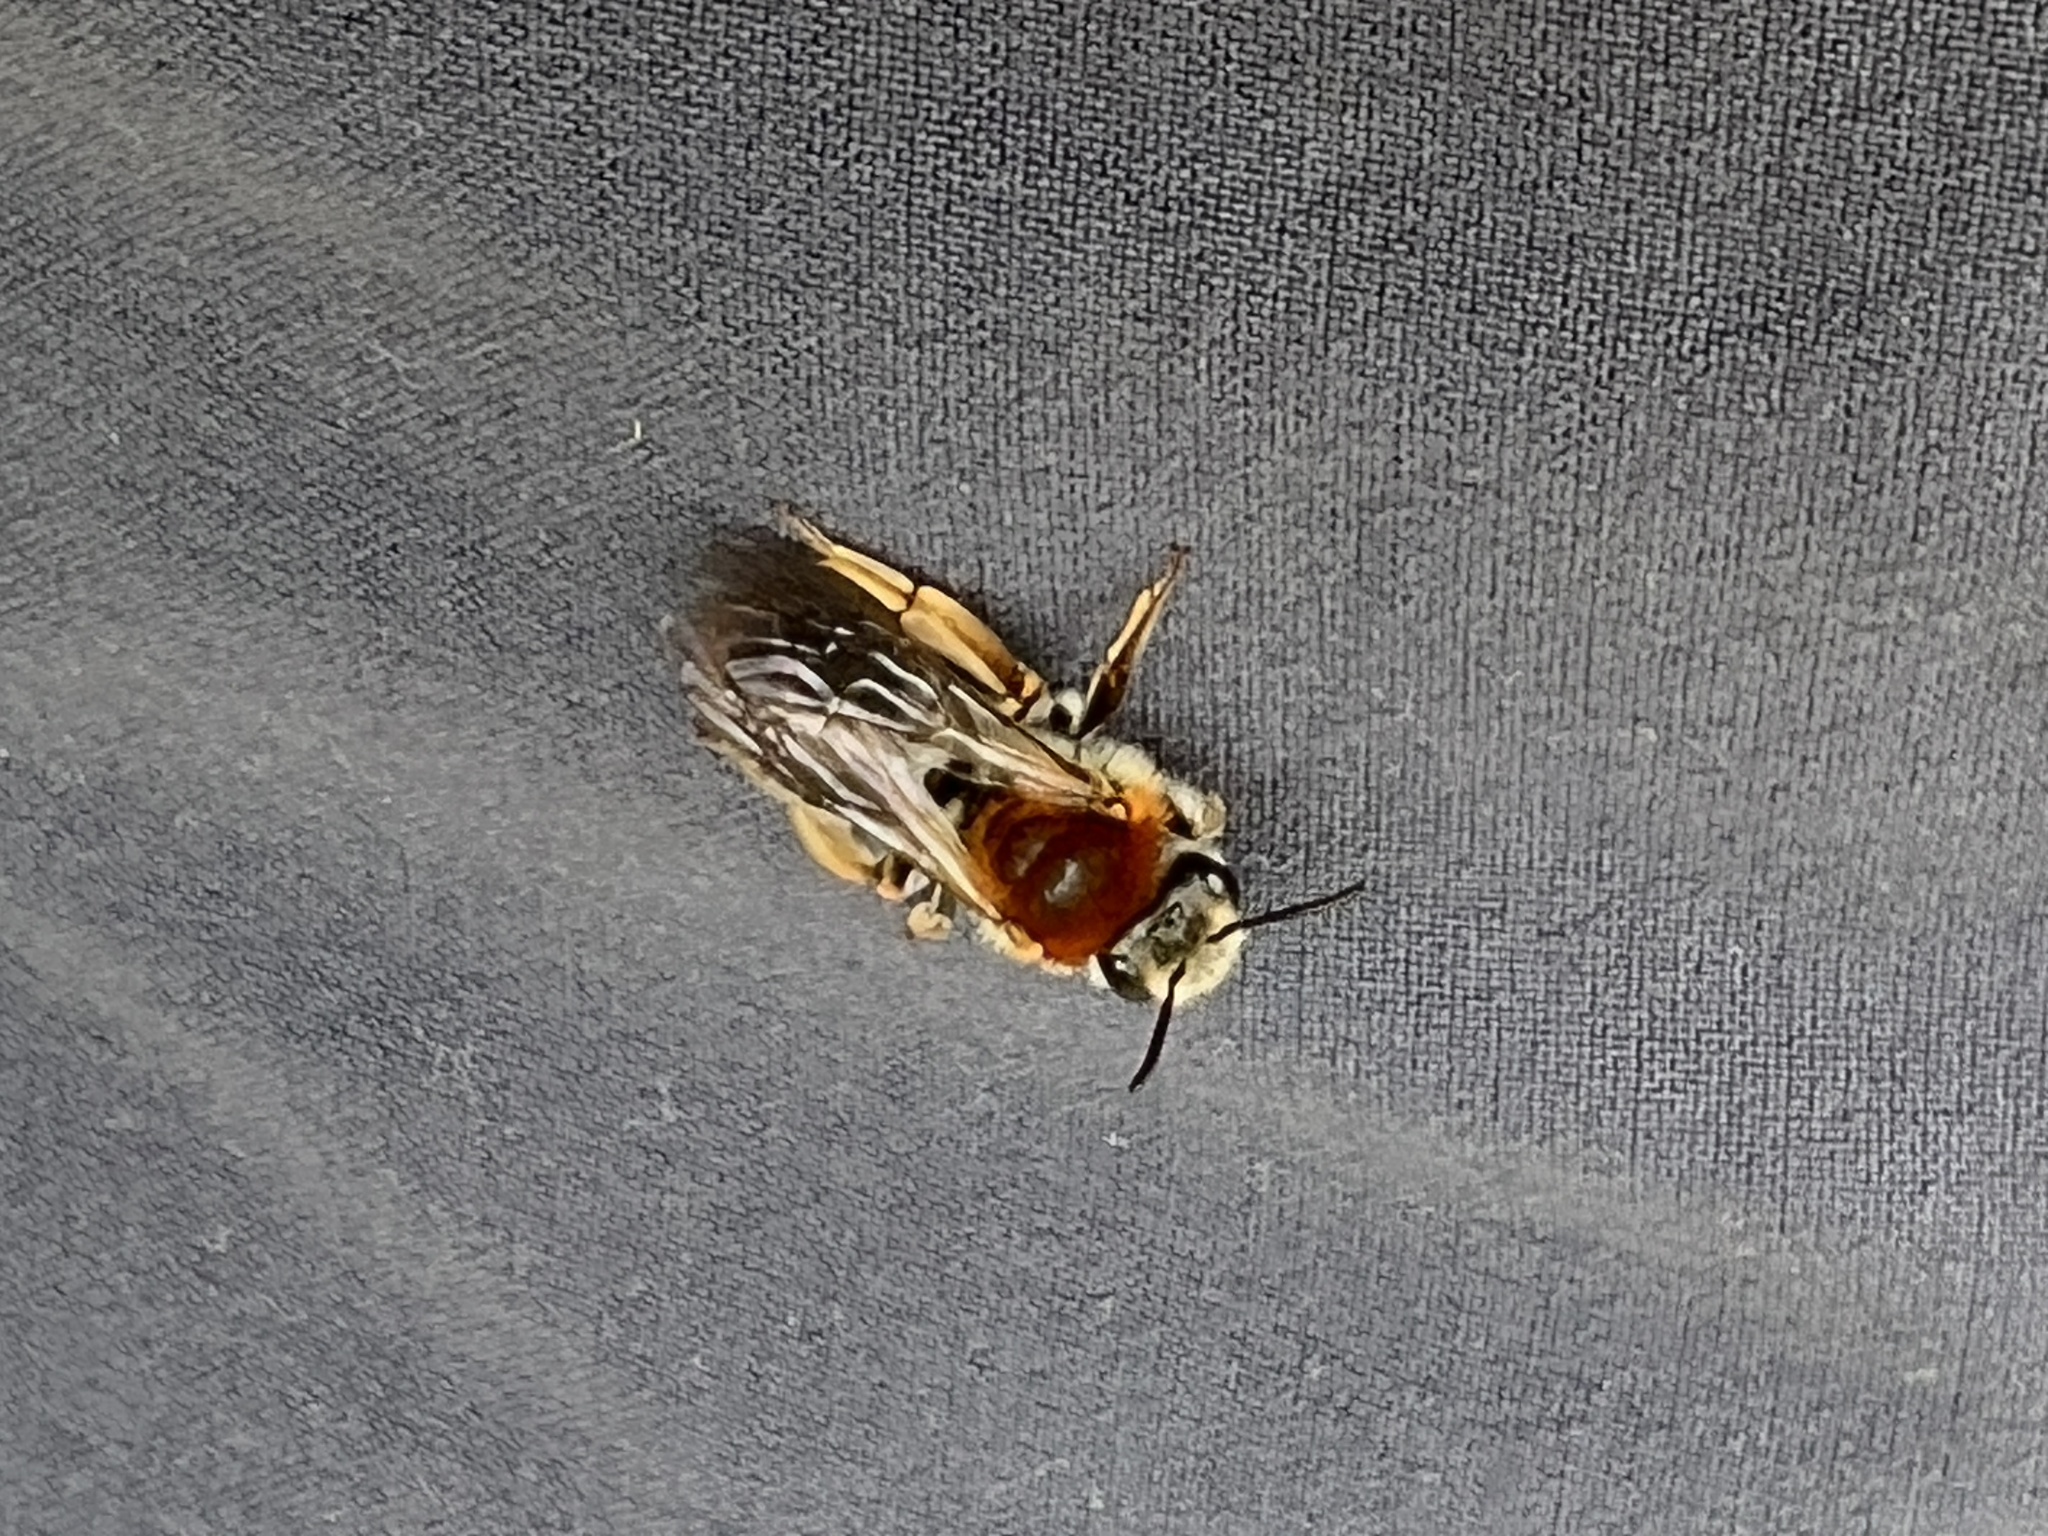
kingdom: Animalia
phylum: Arthropoda
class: Insecta
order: Hymenoptera
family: Andrenidae
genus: Andrena
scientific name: Andrena haemorrhoa
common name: Early mining bee
